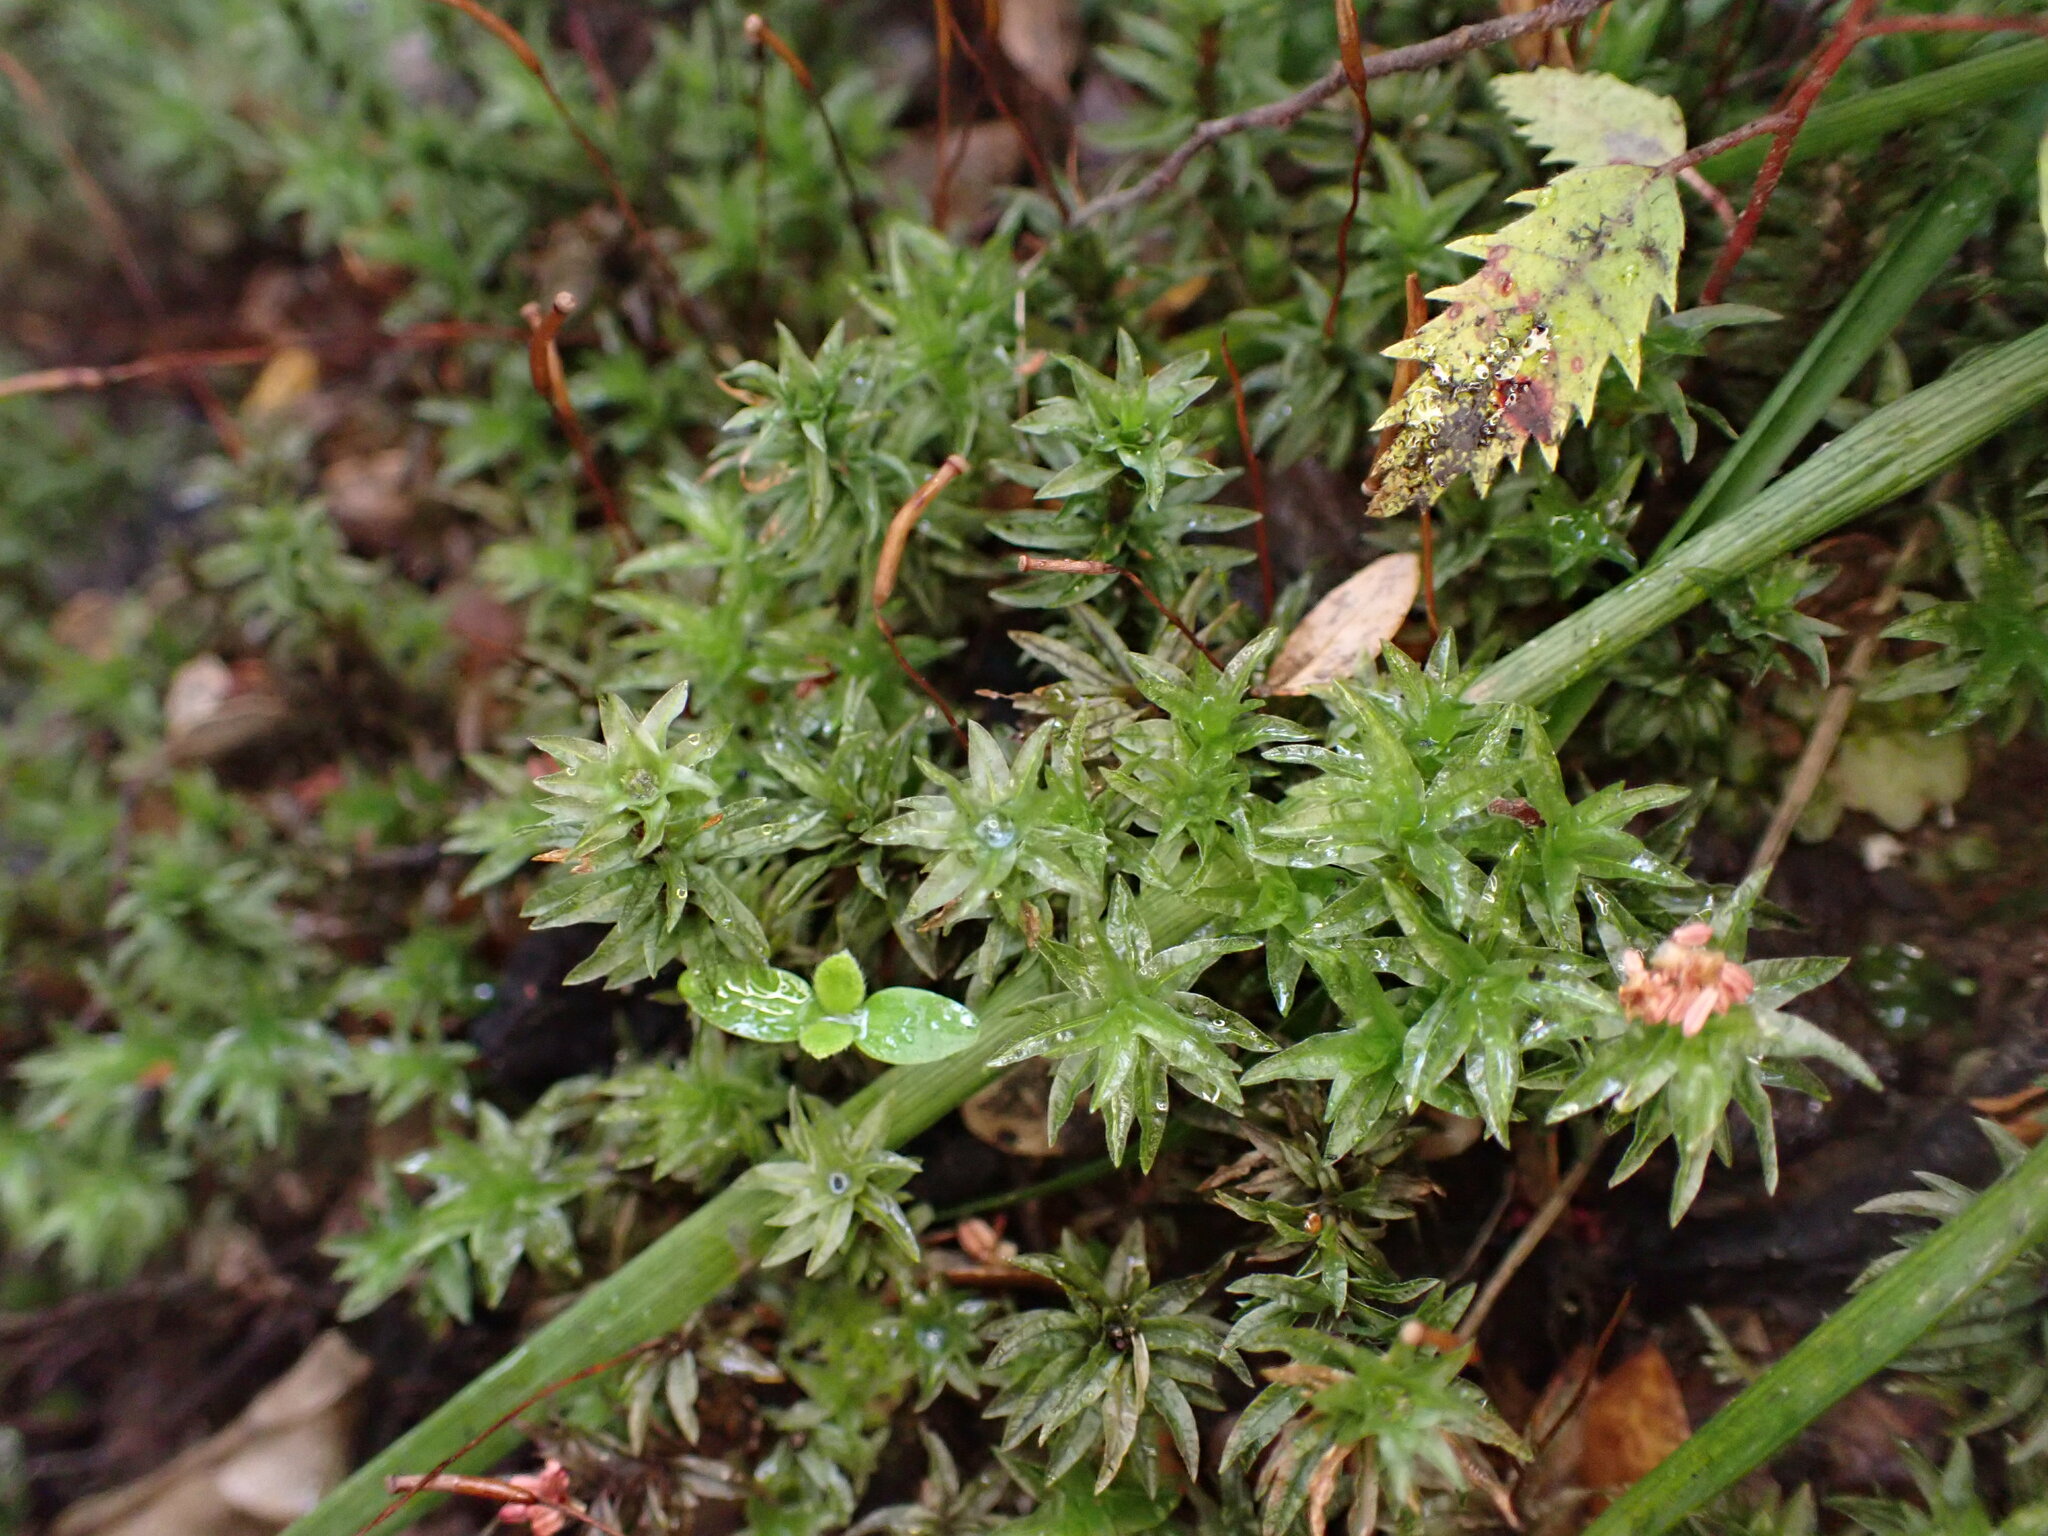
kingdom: Plantae
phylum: Bryophyta
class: Polytrichopsida
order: Polytrichales
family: Polytrichaceae
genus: Atrichum
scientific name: Atrichum androgynum
